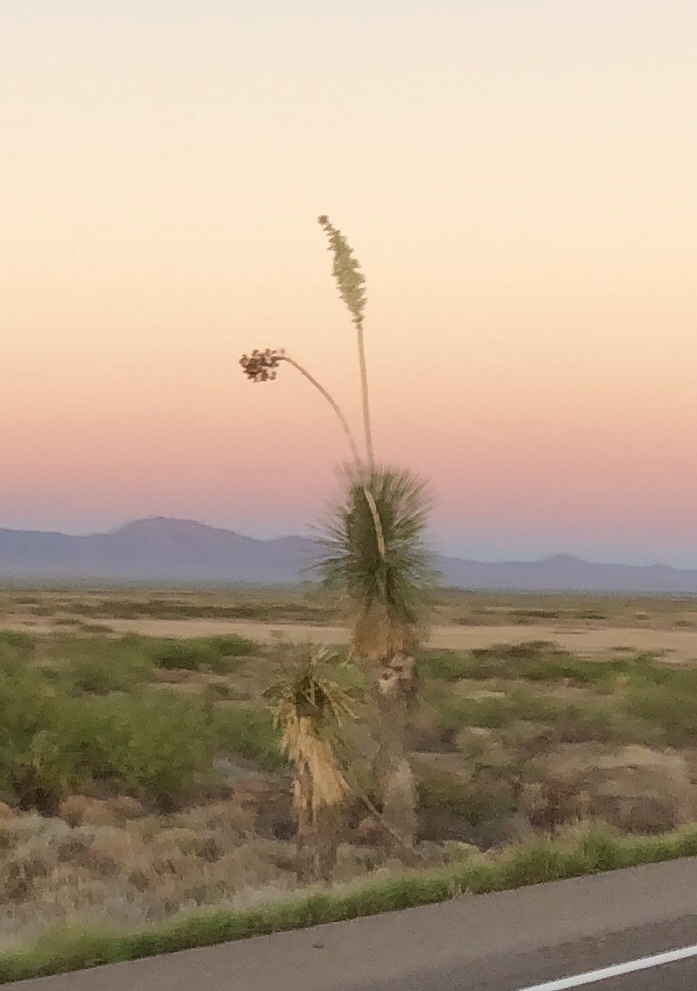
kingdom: Plantae
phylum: Tracheophyta
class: Liliopsida
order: Asparagales
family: Asparagaceae
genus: Yucca
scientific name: Yucca elata
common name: Palmella
